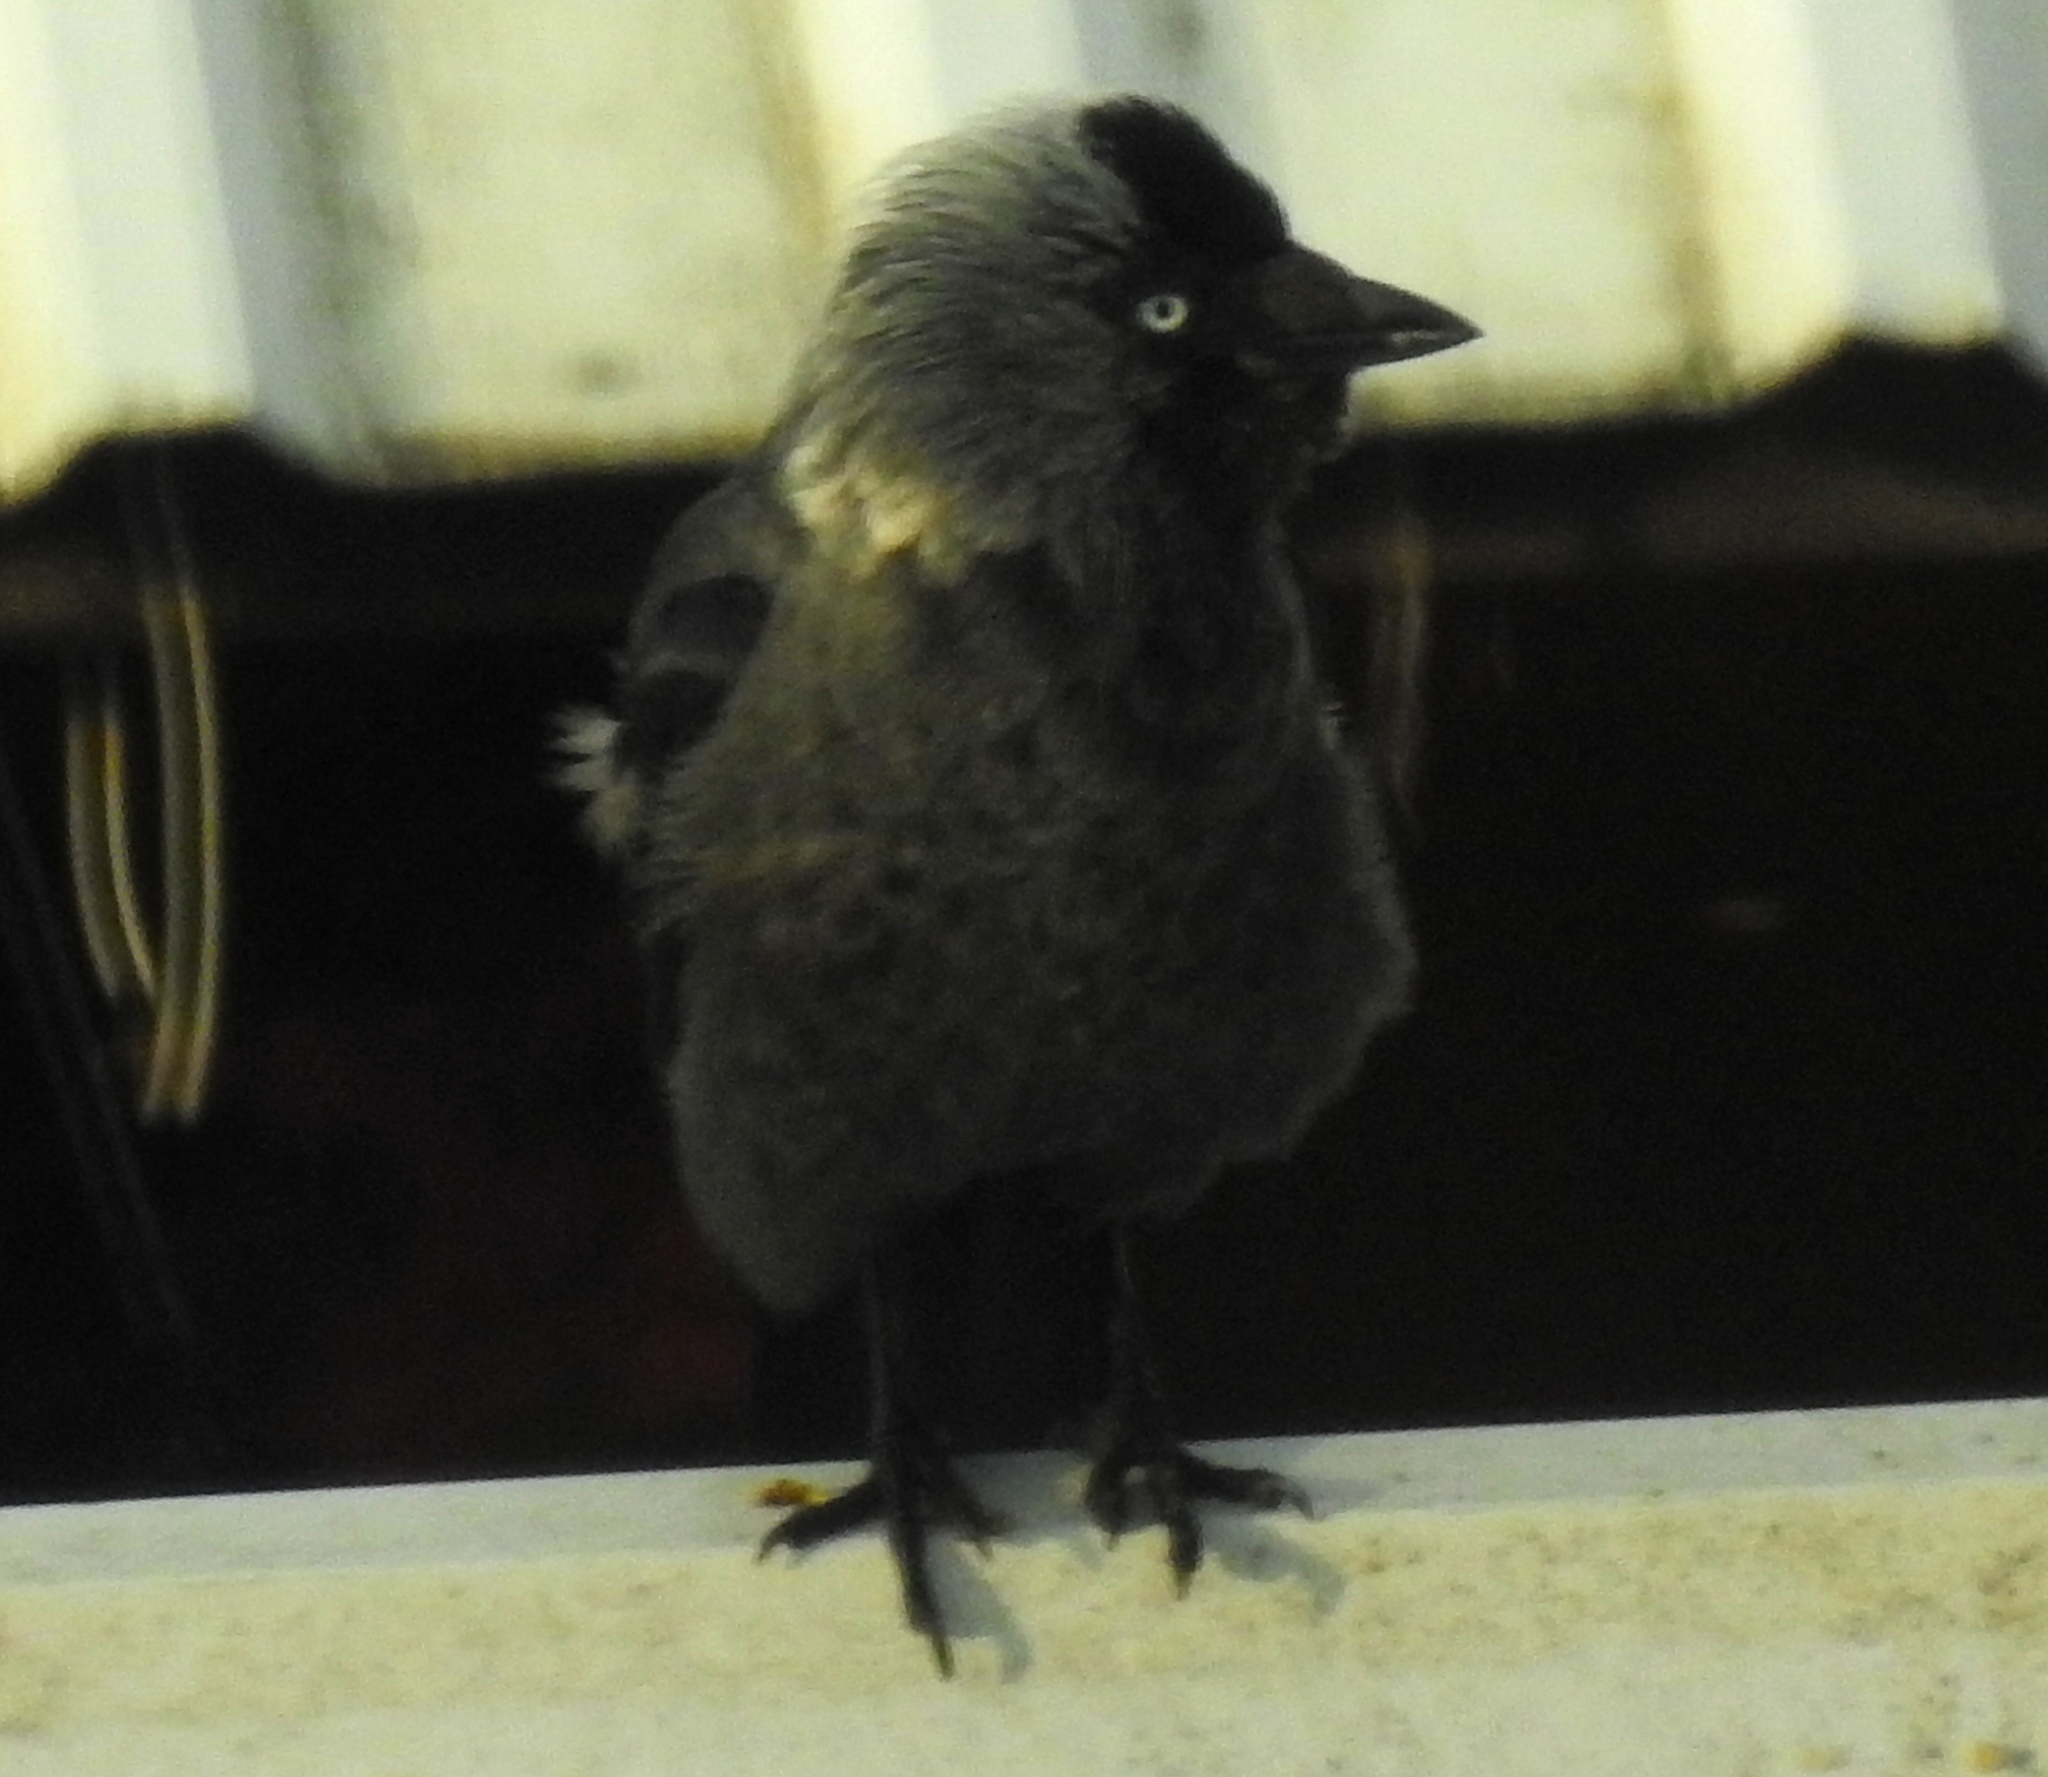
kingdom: Animalia
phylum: Chordata
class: Aves
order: Passeriformes
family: Corvidae
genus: Coloeus
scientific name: Coloeus monedula
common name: Western jackdaw
